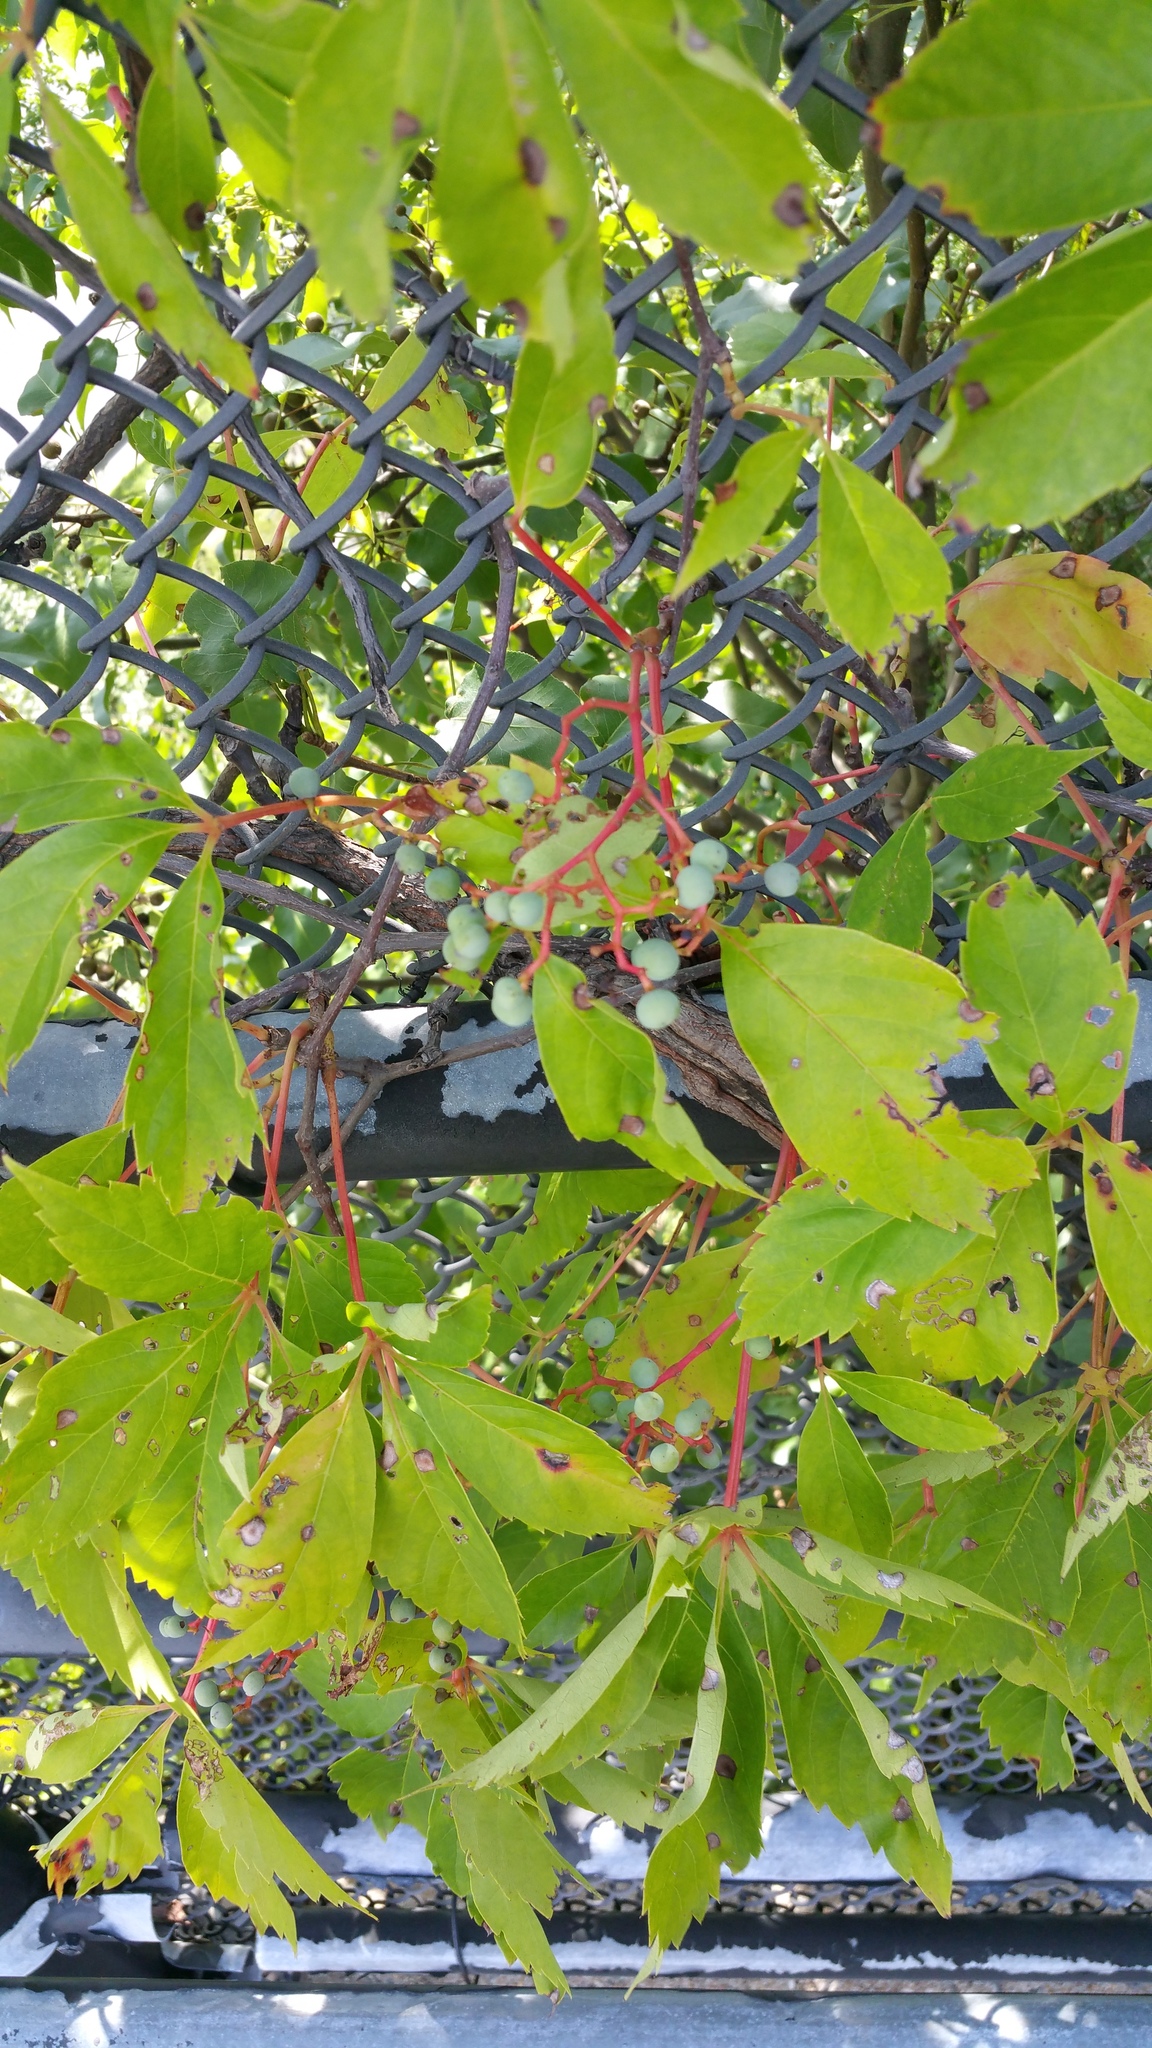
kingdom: Plantae
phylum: Tracheophyta
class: Magnoliopsida
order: Vitales
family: Vitaceae
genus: Parthenocissus
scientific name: Parthenocissus quinquefolia
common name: Virginia-creeper
